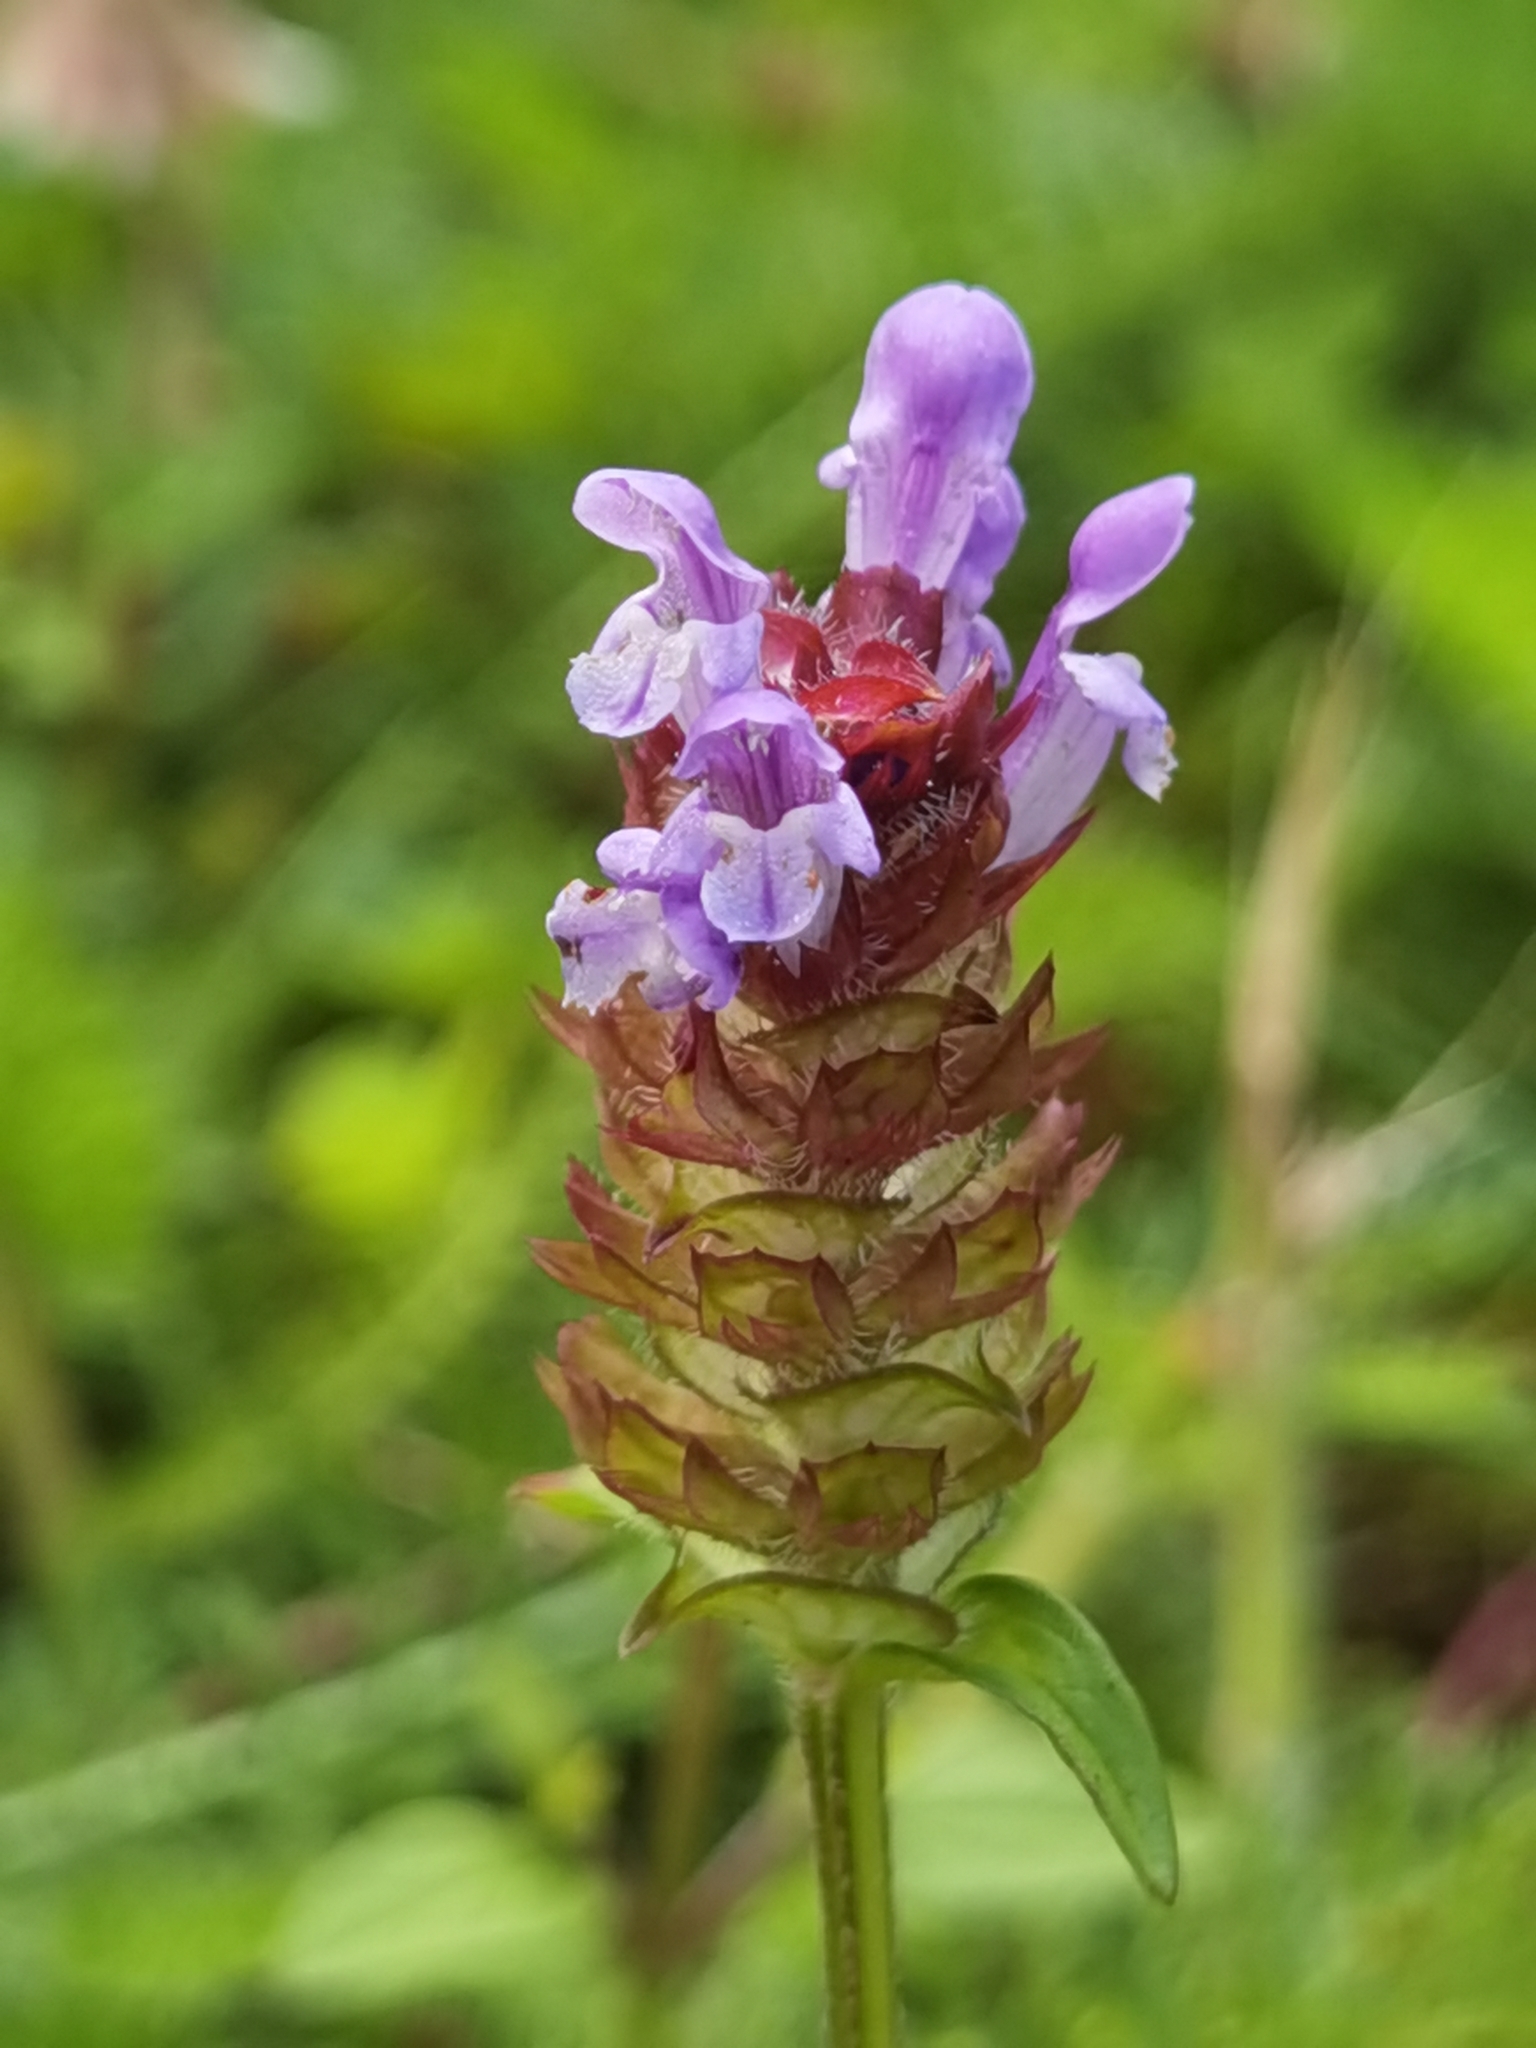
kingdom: Plantae
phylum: Tracheophyta
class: Magnoliopsida
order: Lamiales
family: Lamiaceae
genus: Prunella
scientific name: Prunella vulgaris
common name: Heal-all
